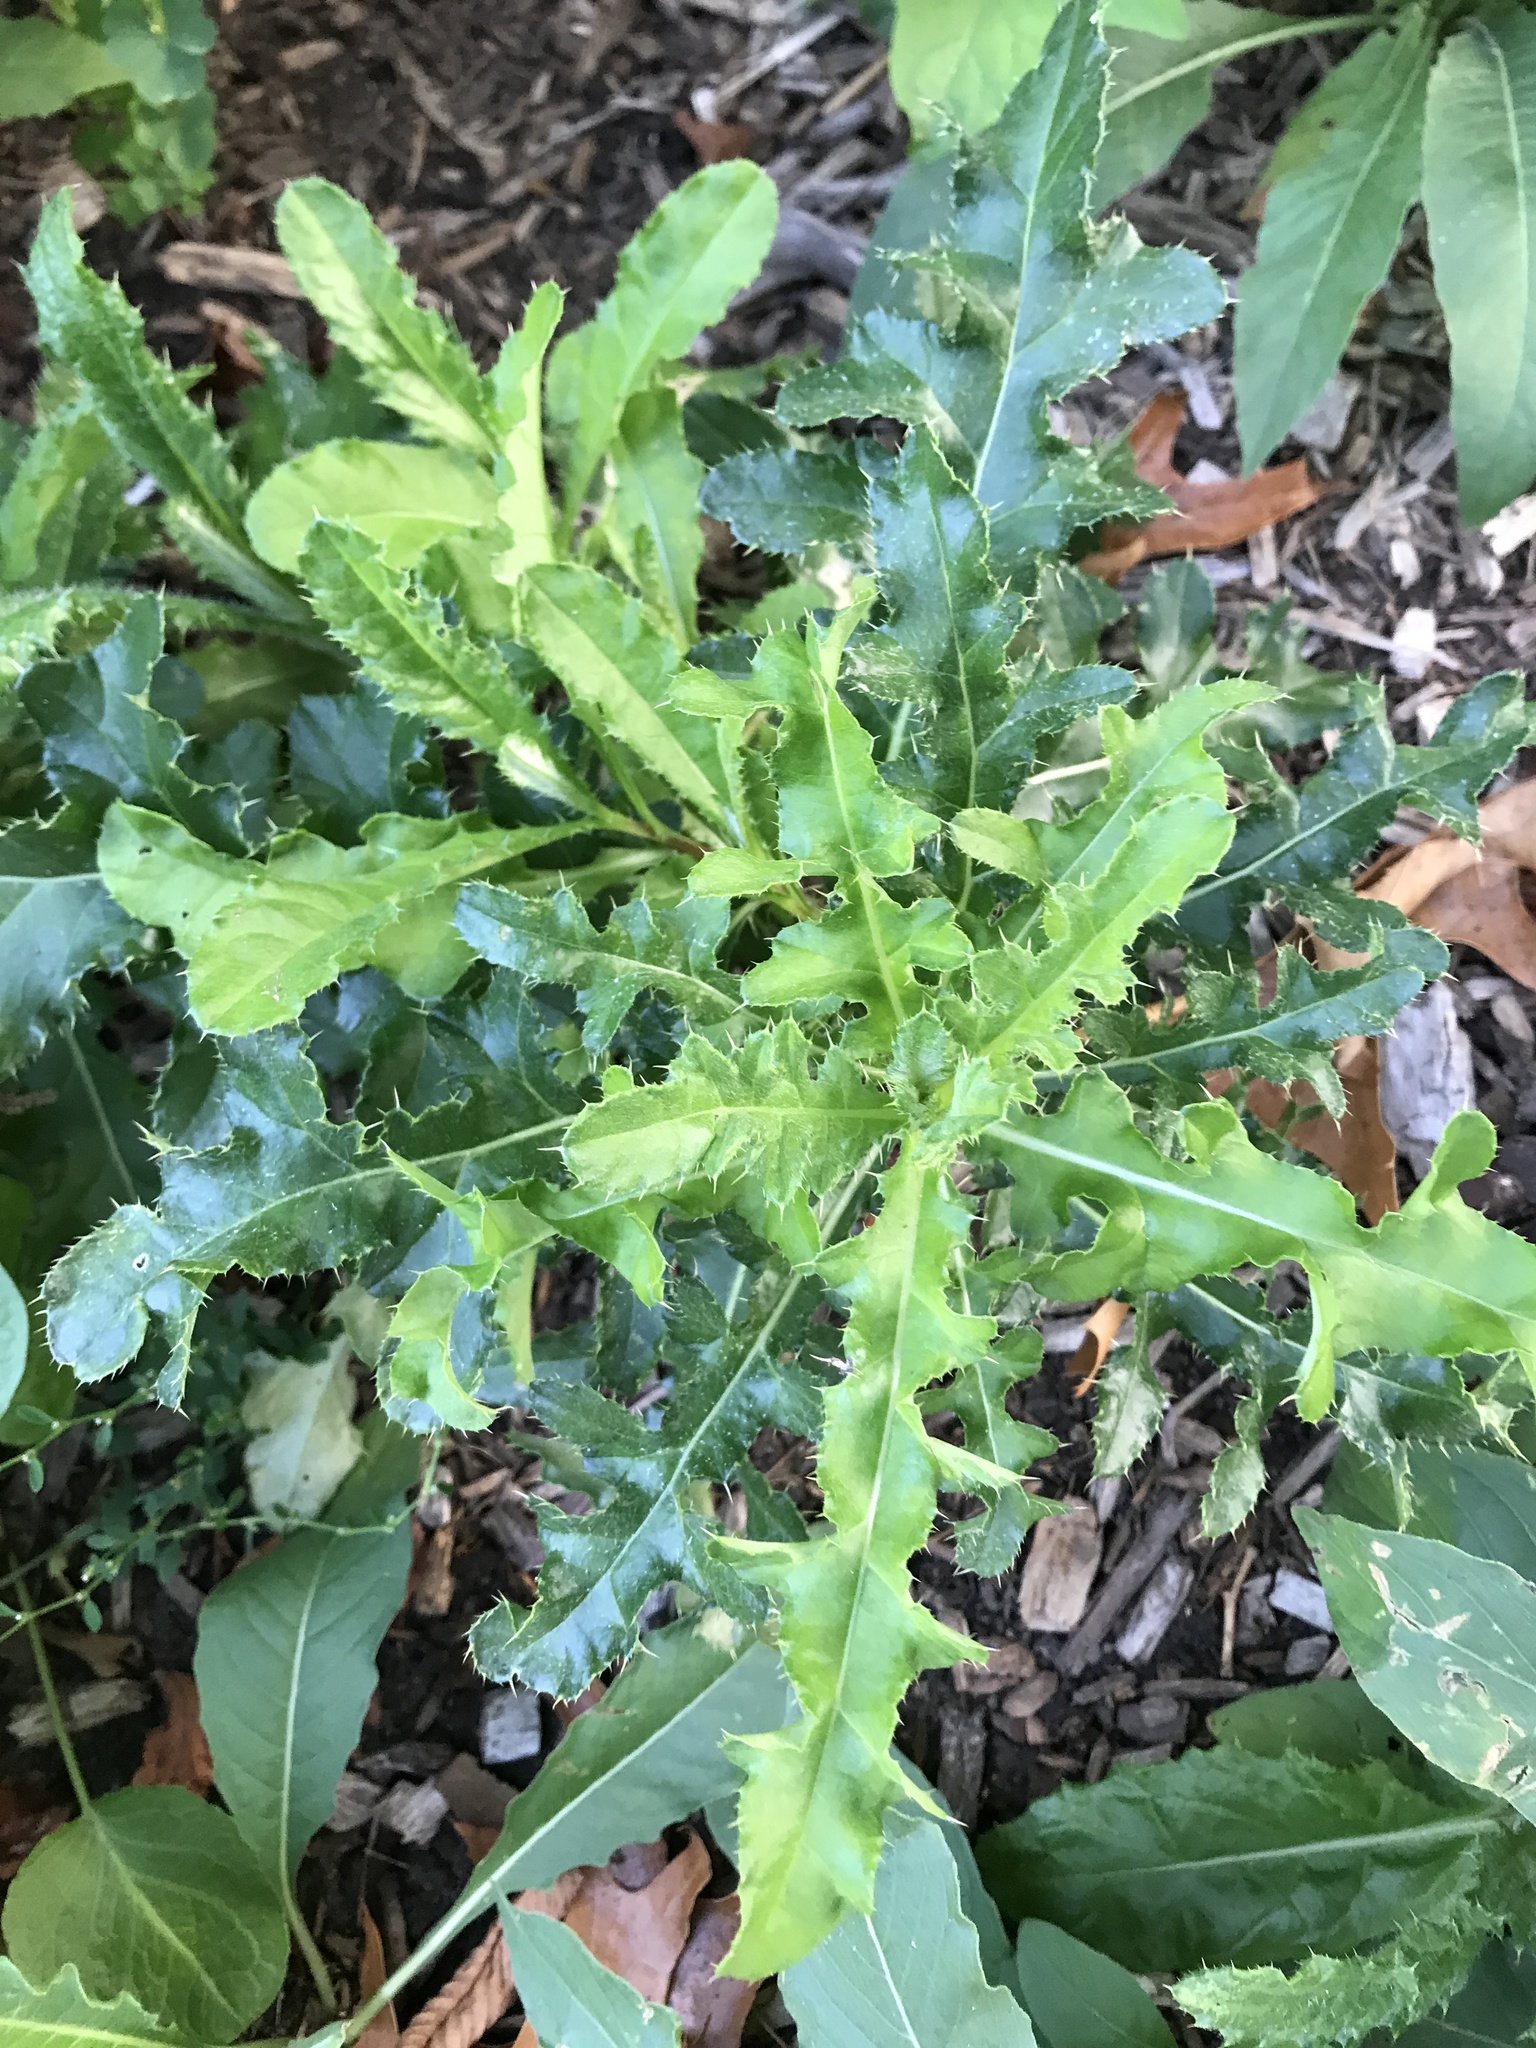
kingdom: Plantae
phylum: Tracheophyta
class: Magnoliopsida
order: Asterales
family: Asteraceae
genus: Cirsium
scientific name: Cirsium arvense
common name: Creeping thistle
